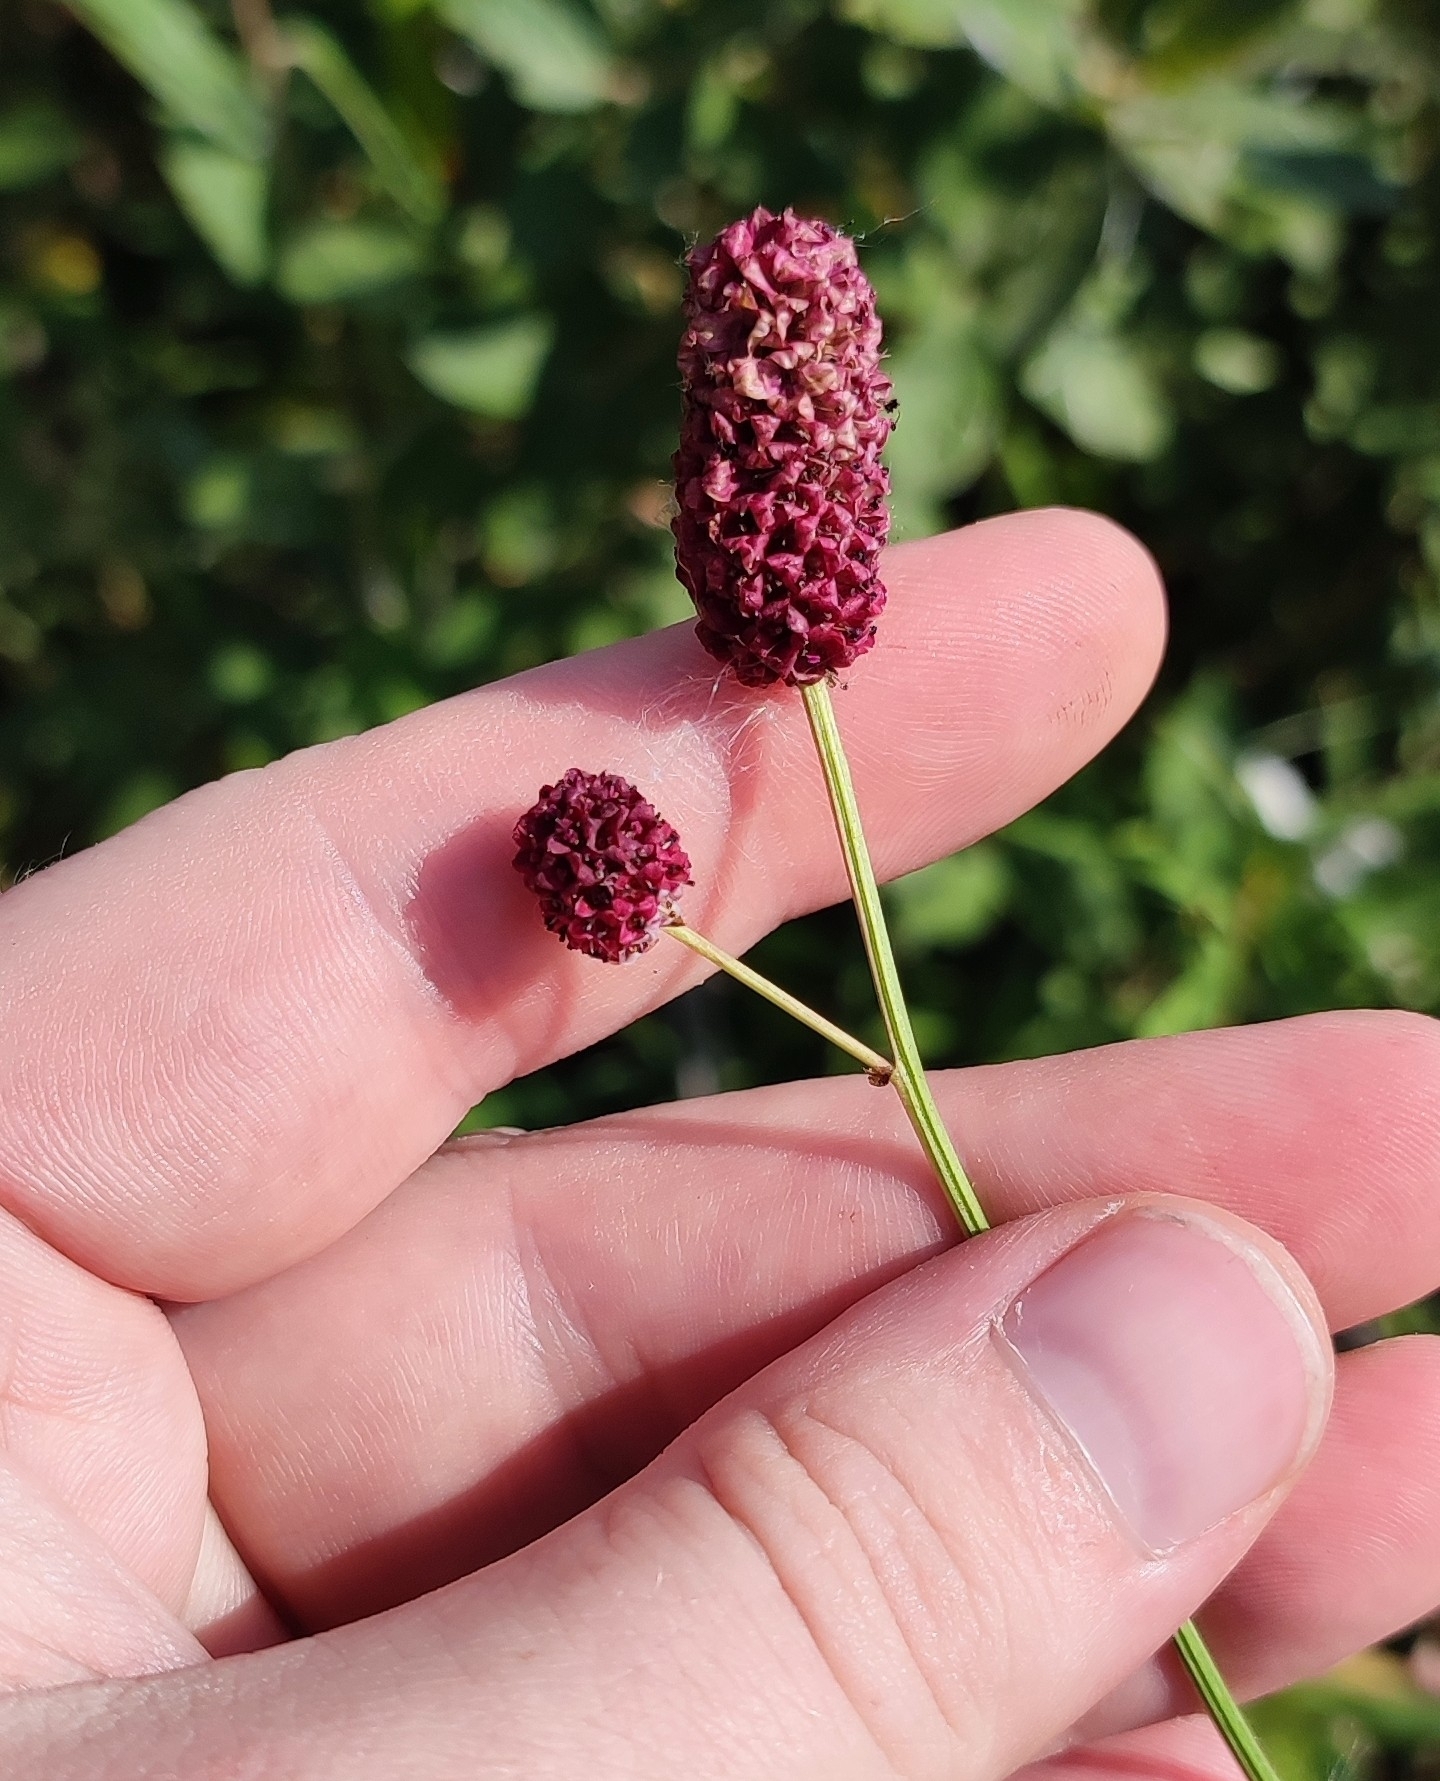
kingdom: Plantae
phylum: Tracheophyta
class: Magnoliopsida
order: Rosales
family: Rosaceae
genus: Sanguisorba
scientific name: Sanguisorba officinalis
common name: Great burnet
